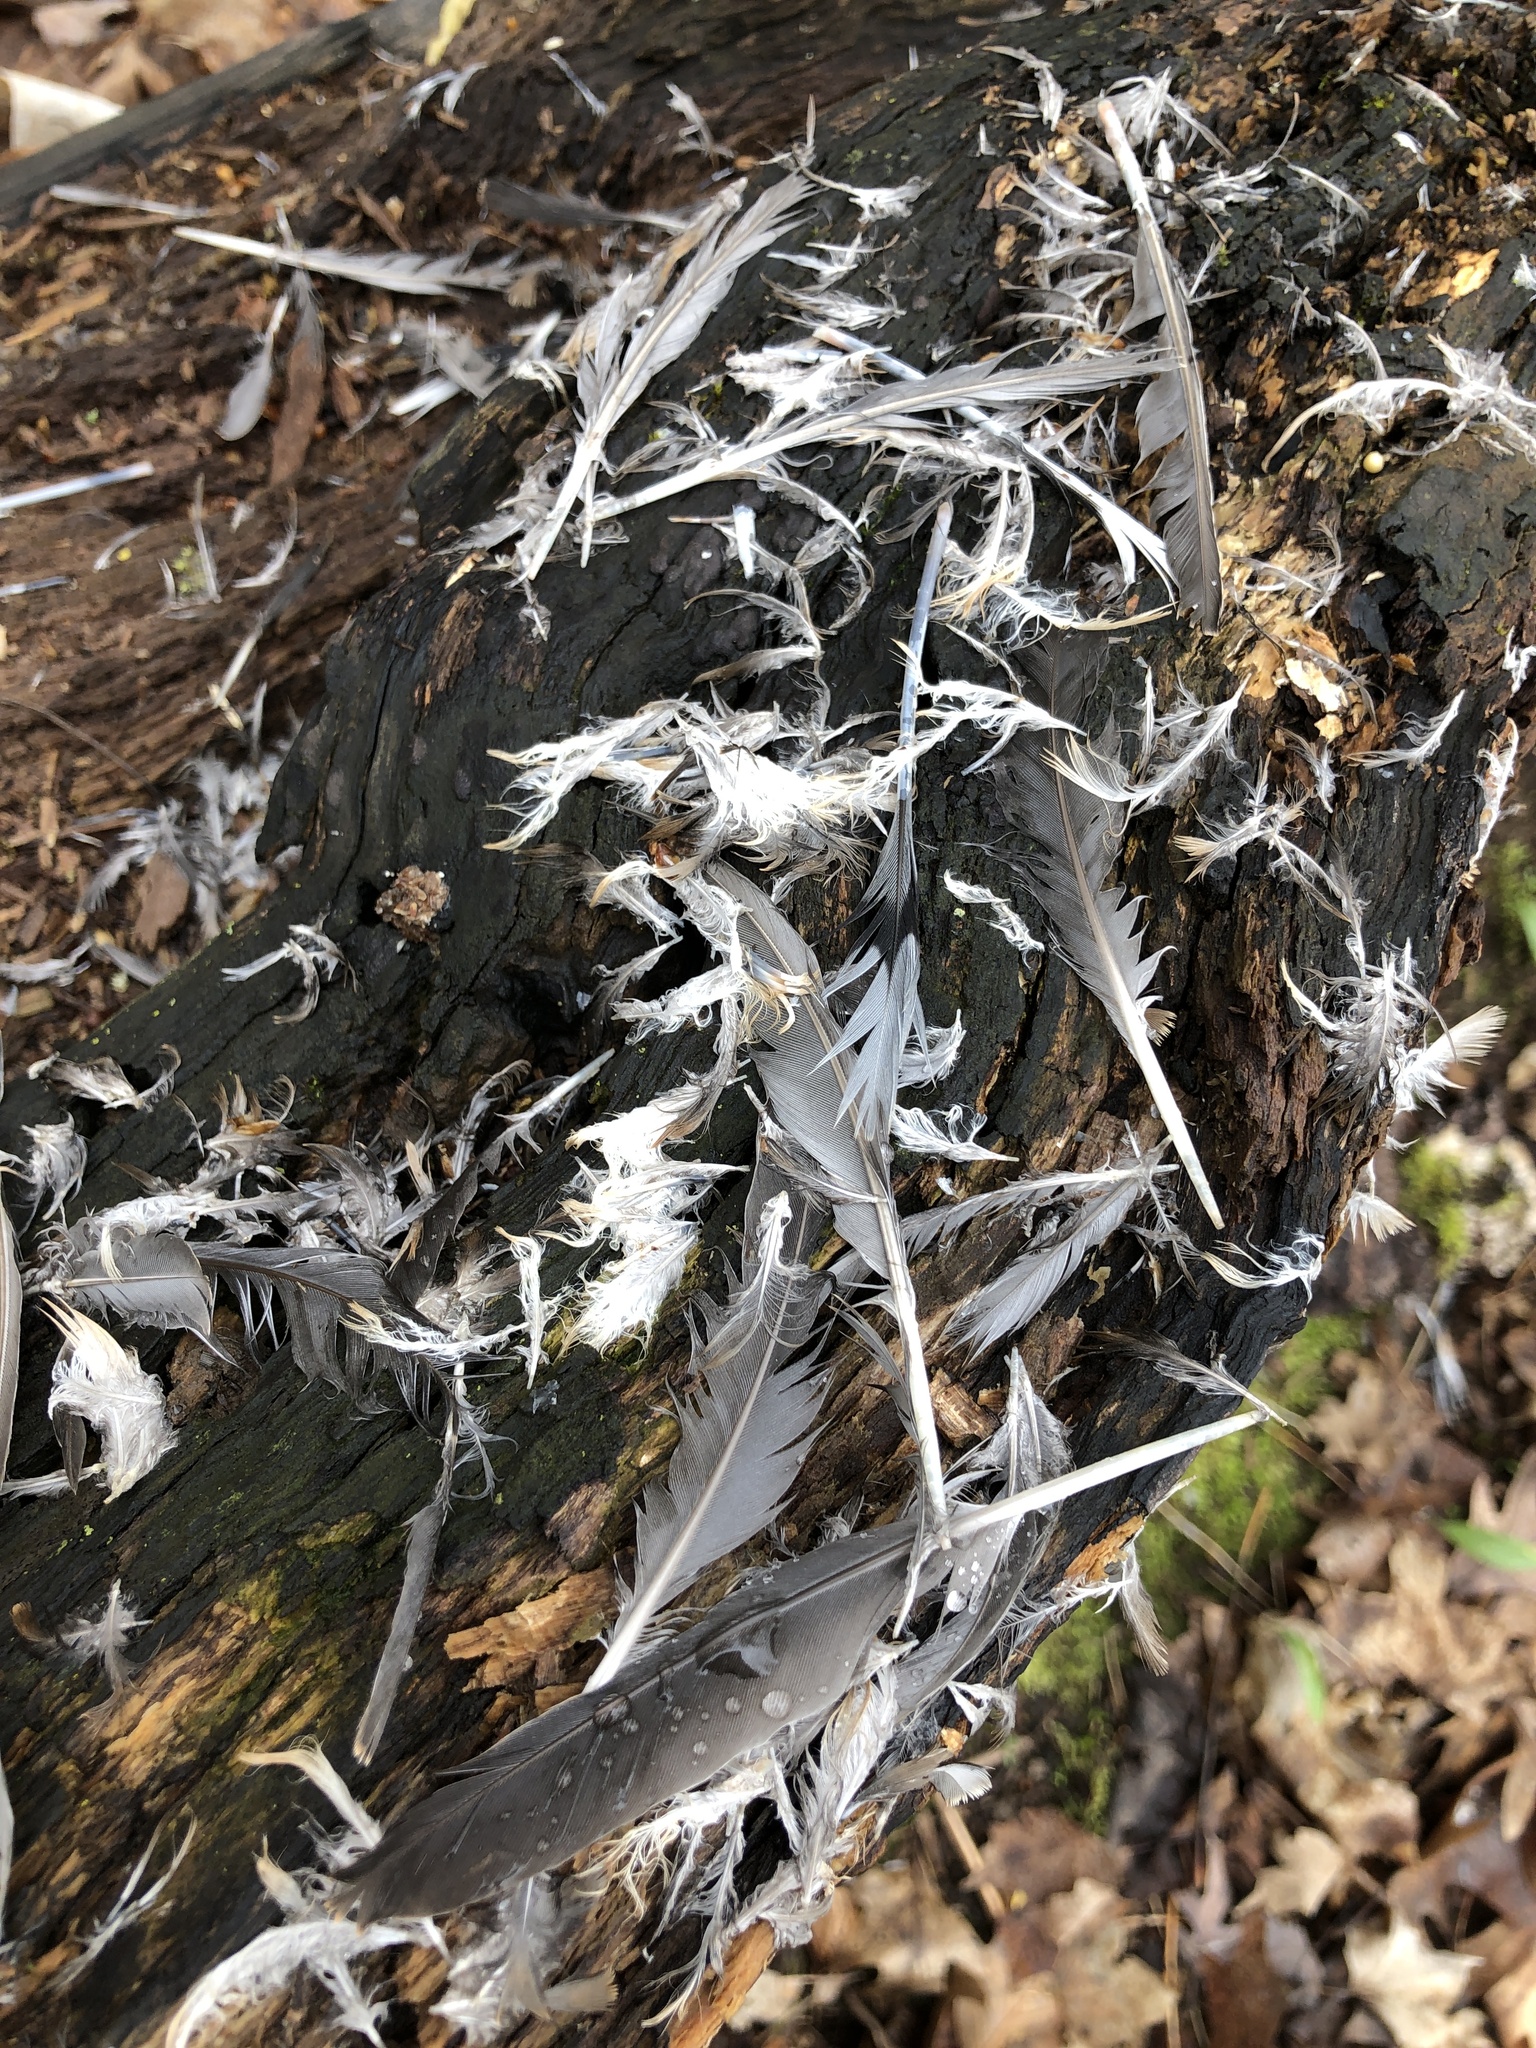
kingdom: Animalia
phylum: Chordata
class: Aves
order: Columbiformes
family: Columbidae
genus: Zenaida
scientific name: Zenaida macroura
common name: Mourning dove
